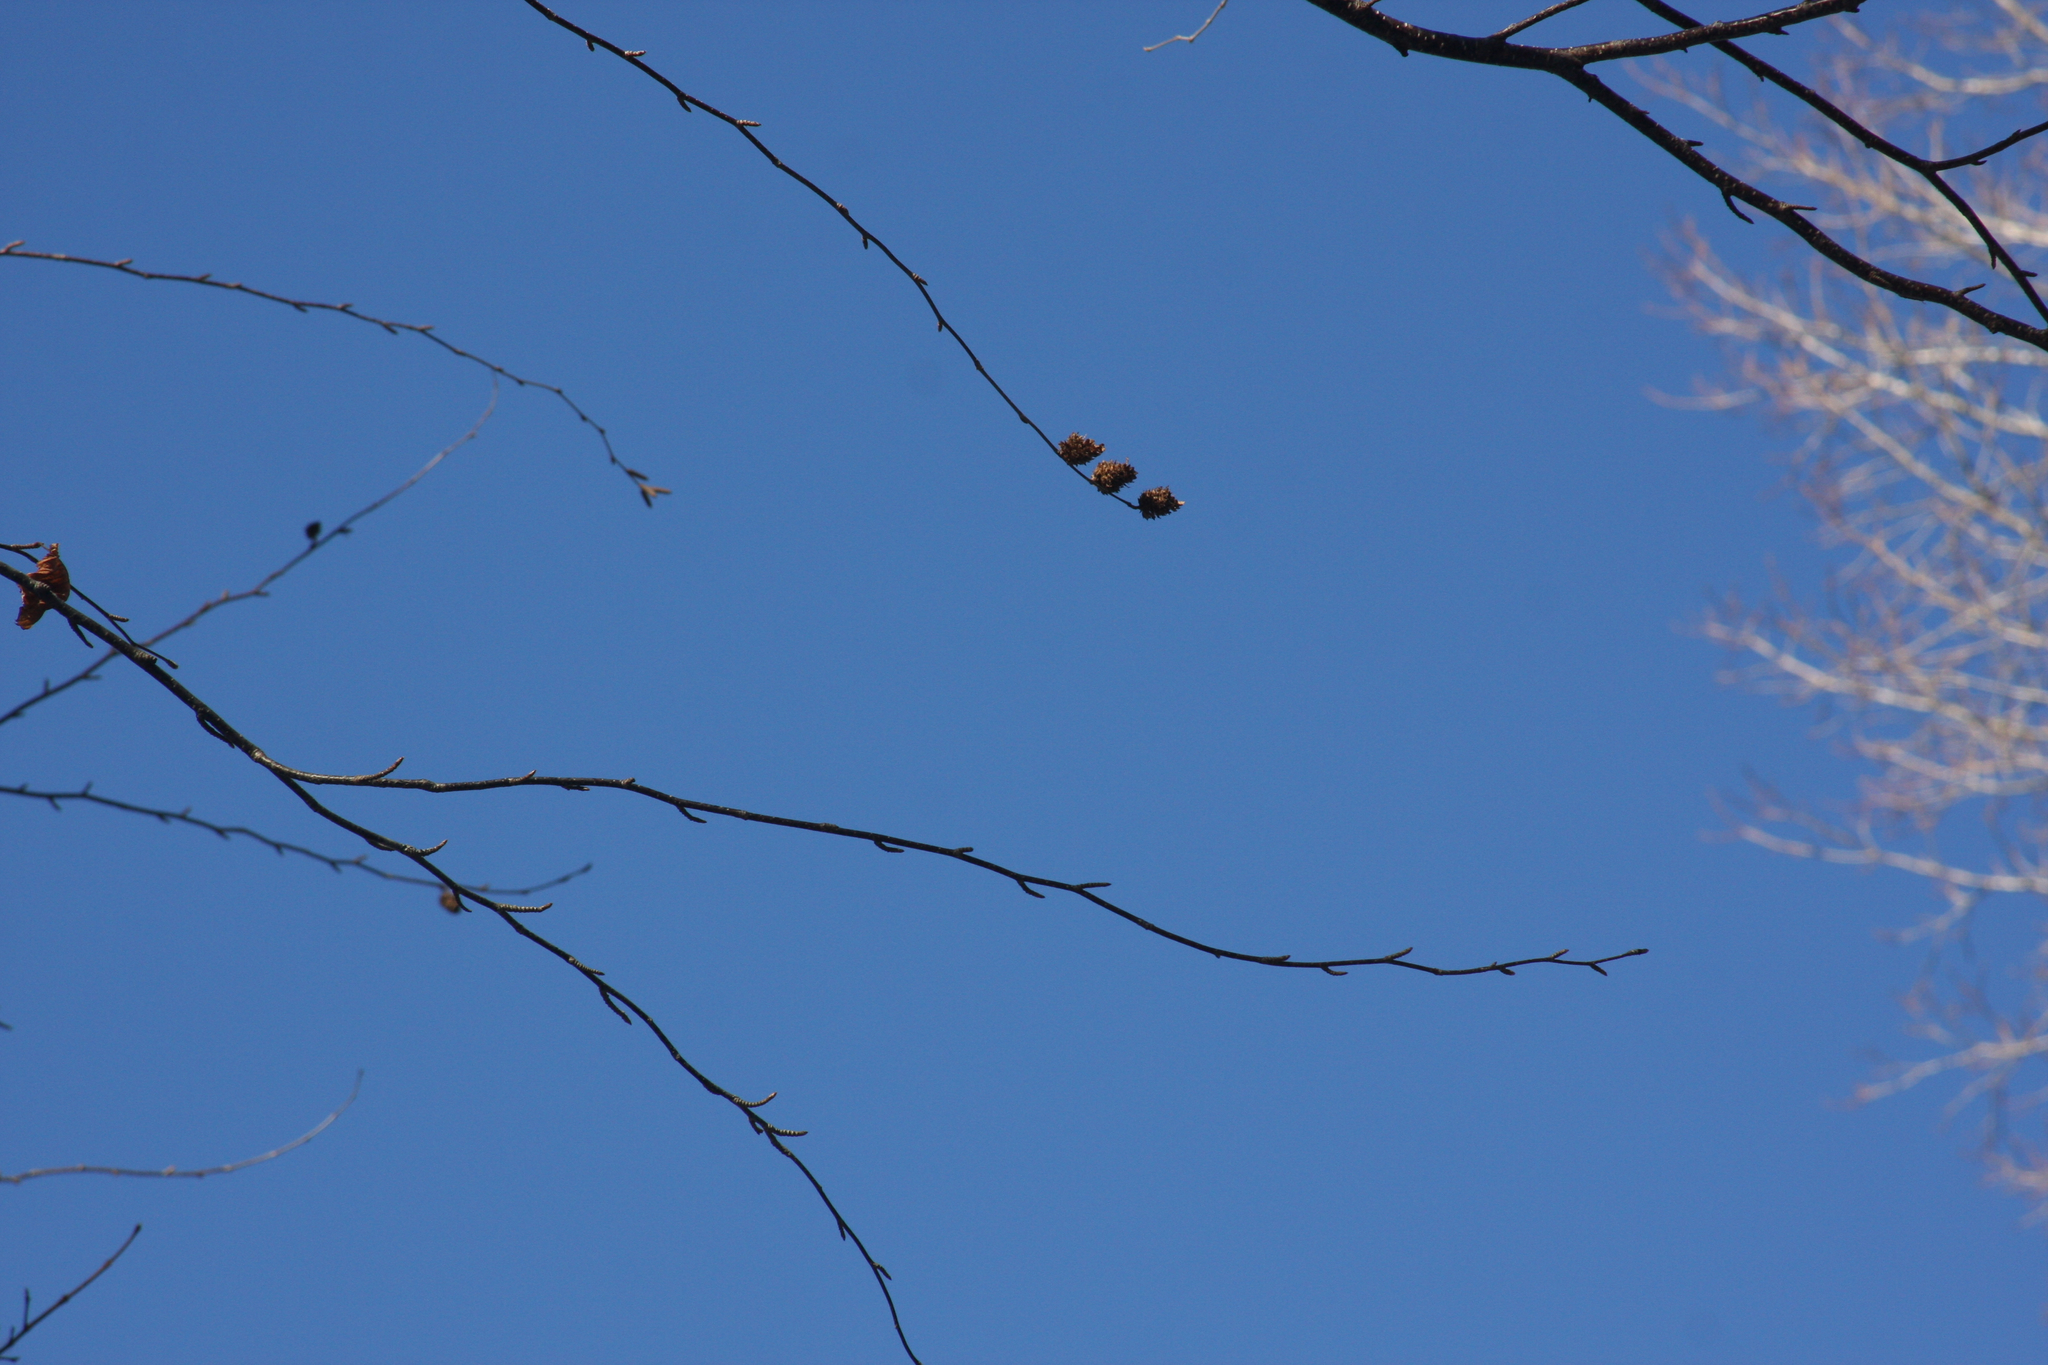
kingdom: Plantae
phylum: Tracheophyta
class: Magnoliopsida
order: Fagales
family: Betulaceae
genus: Betula
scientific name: Betula alleghaniensis
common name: Yellow birch
